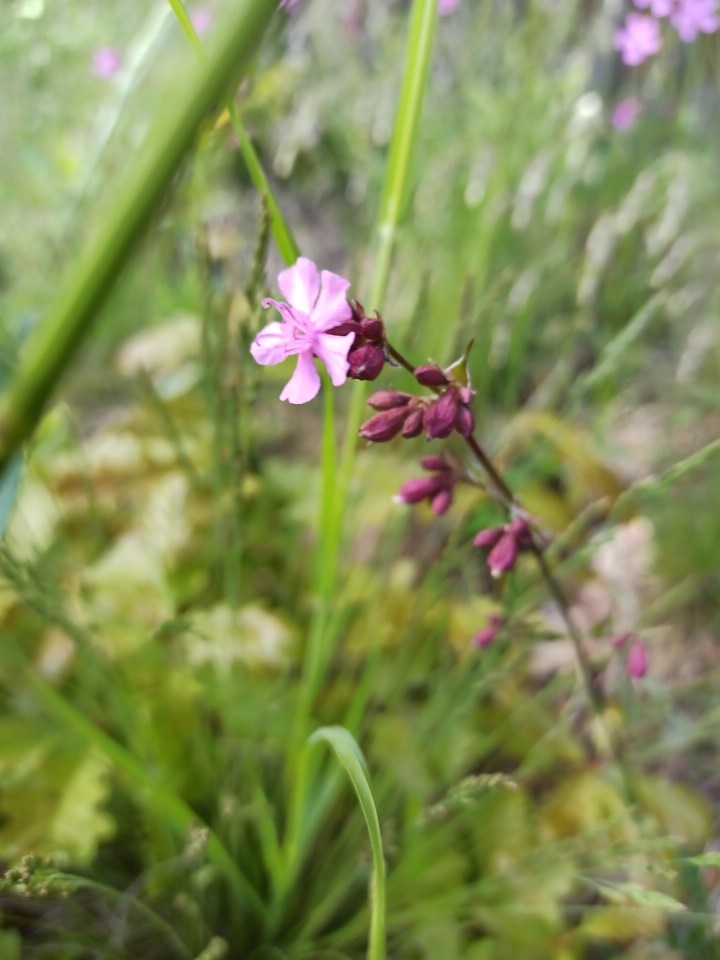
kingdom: Plantae
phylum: Tracheophyta
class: Magnoliopsida
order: Caryophyllales
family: Caryophyllaceae
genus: Viscaria
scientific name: Viscaria vulgaris
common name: Clammy campion
